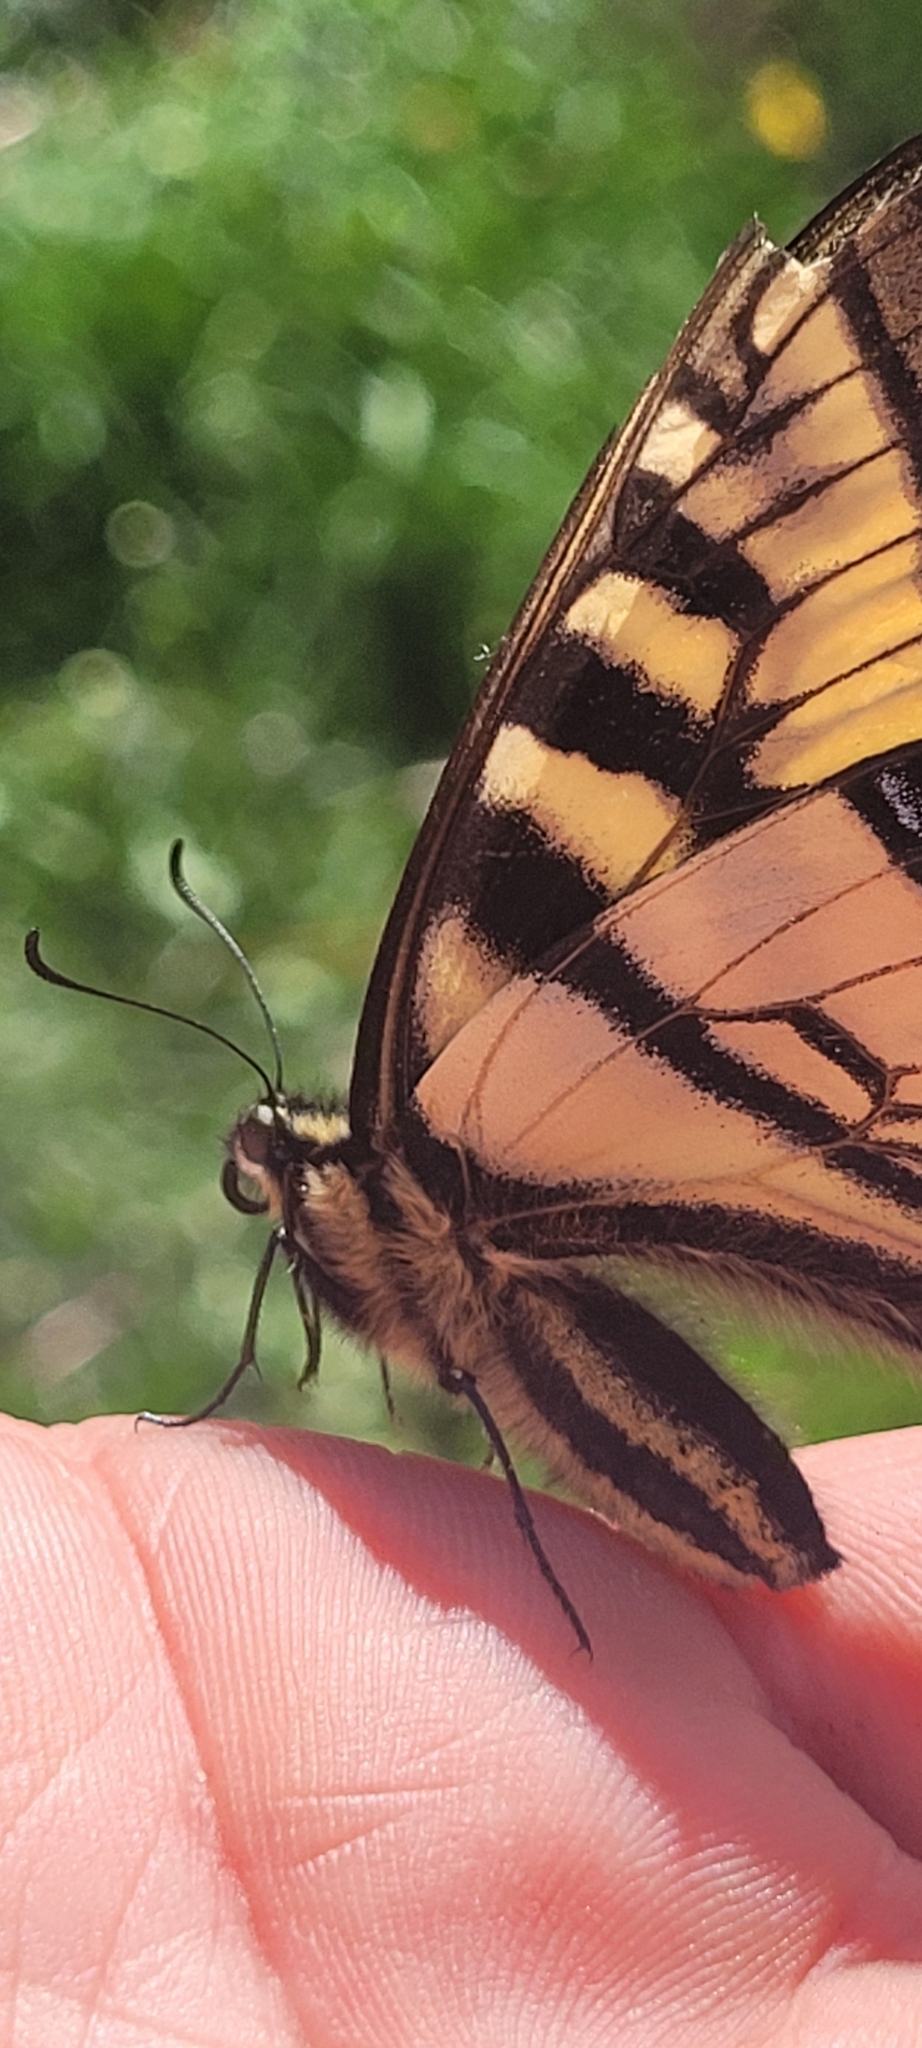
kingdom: Animalia
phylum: Arthropoda
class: Insecta
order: Lepidoptera
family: Papilionidae
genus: Papilio
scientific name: Papilio canadensis
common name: Canadian tiger swallowtail
